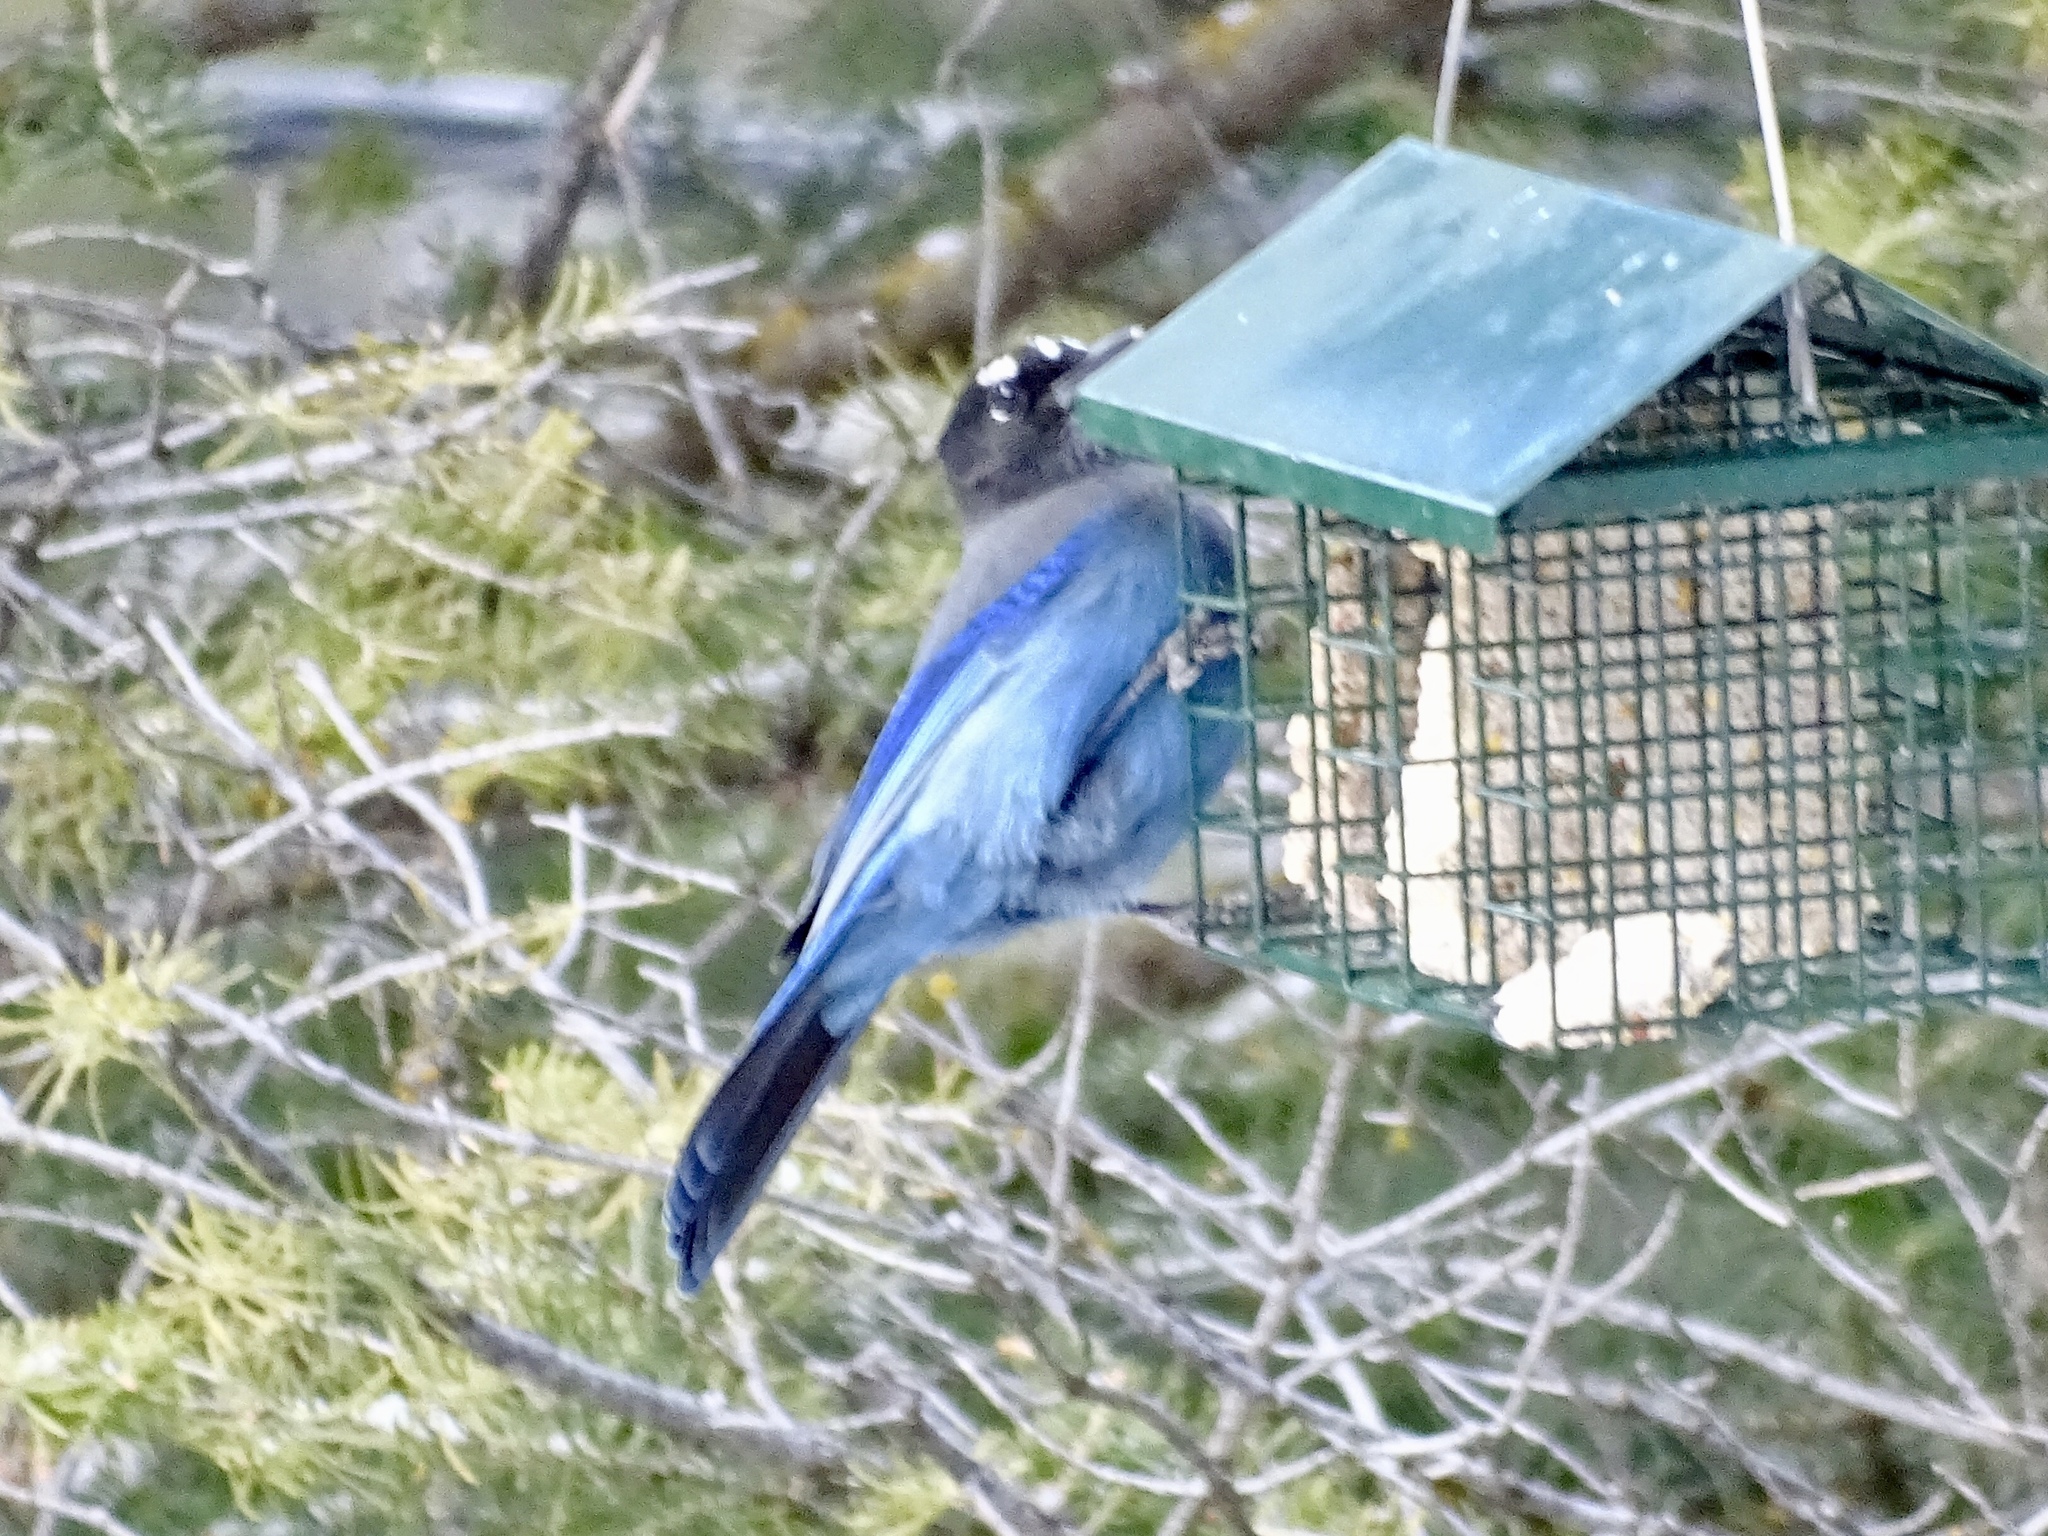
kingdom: Animalia
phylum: Chordata
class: Aves
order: Passeriformes
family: Corvidae
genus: Cyanocitta
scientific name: Cyanocitta stelleri
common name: Steller's jay
